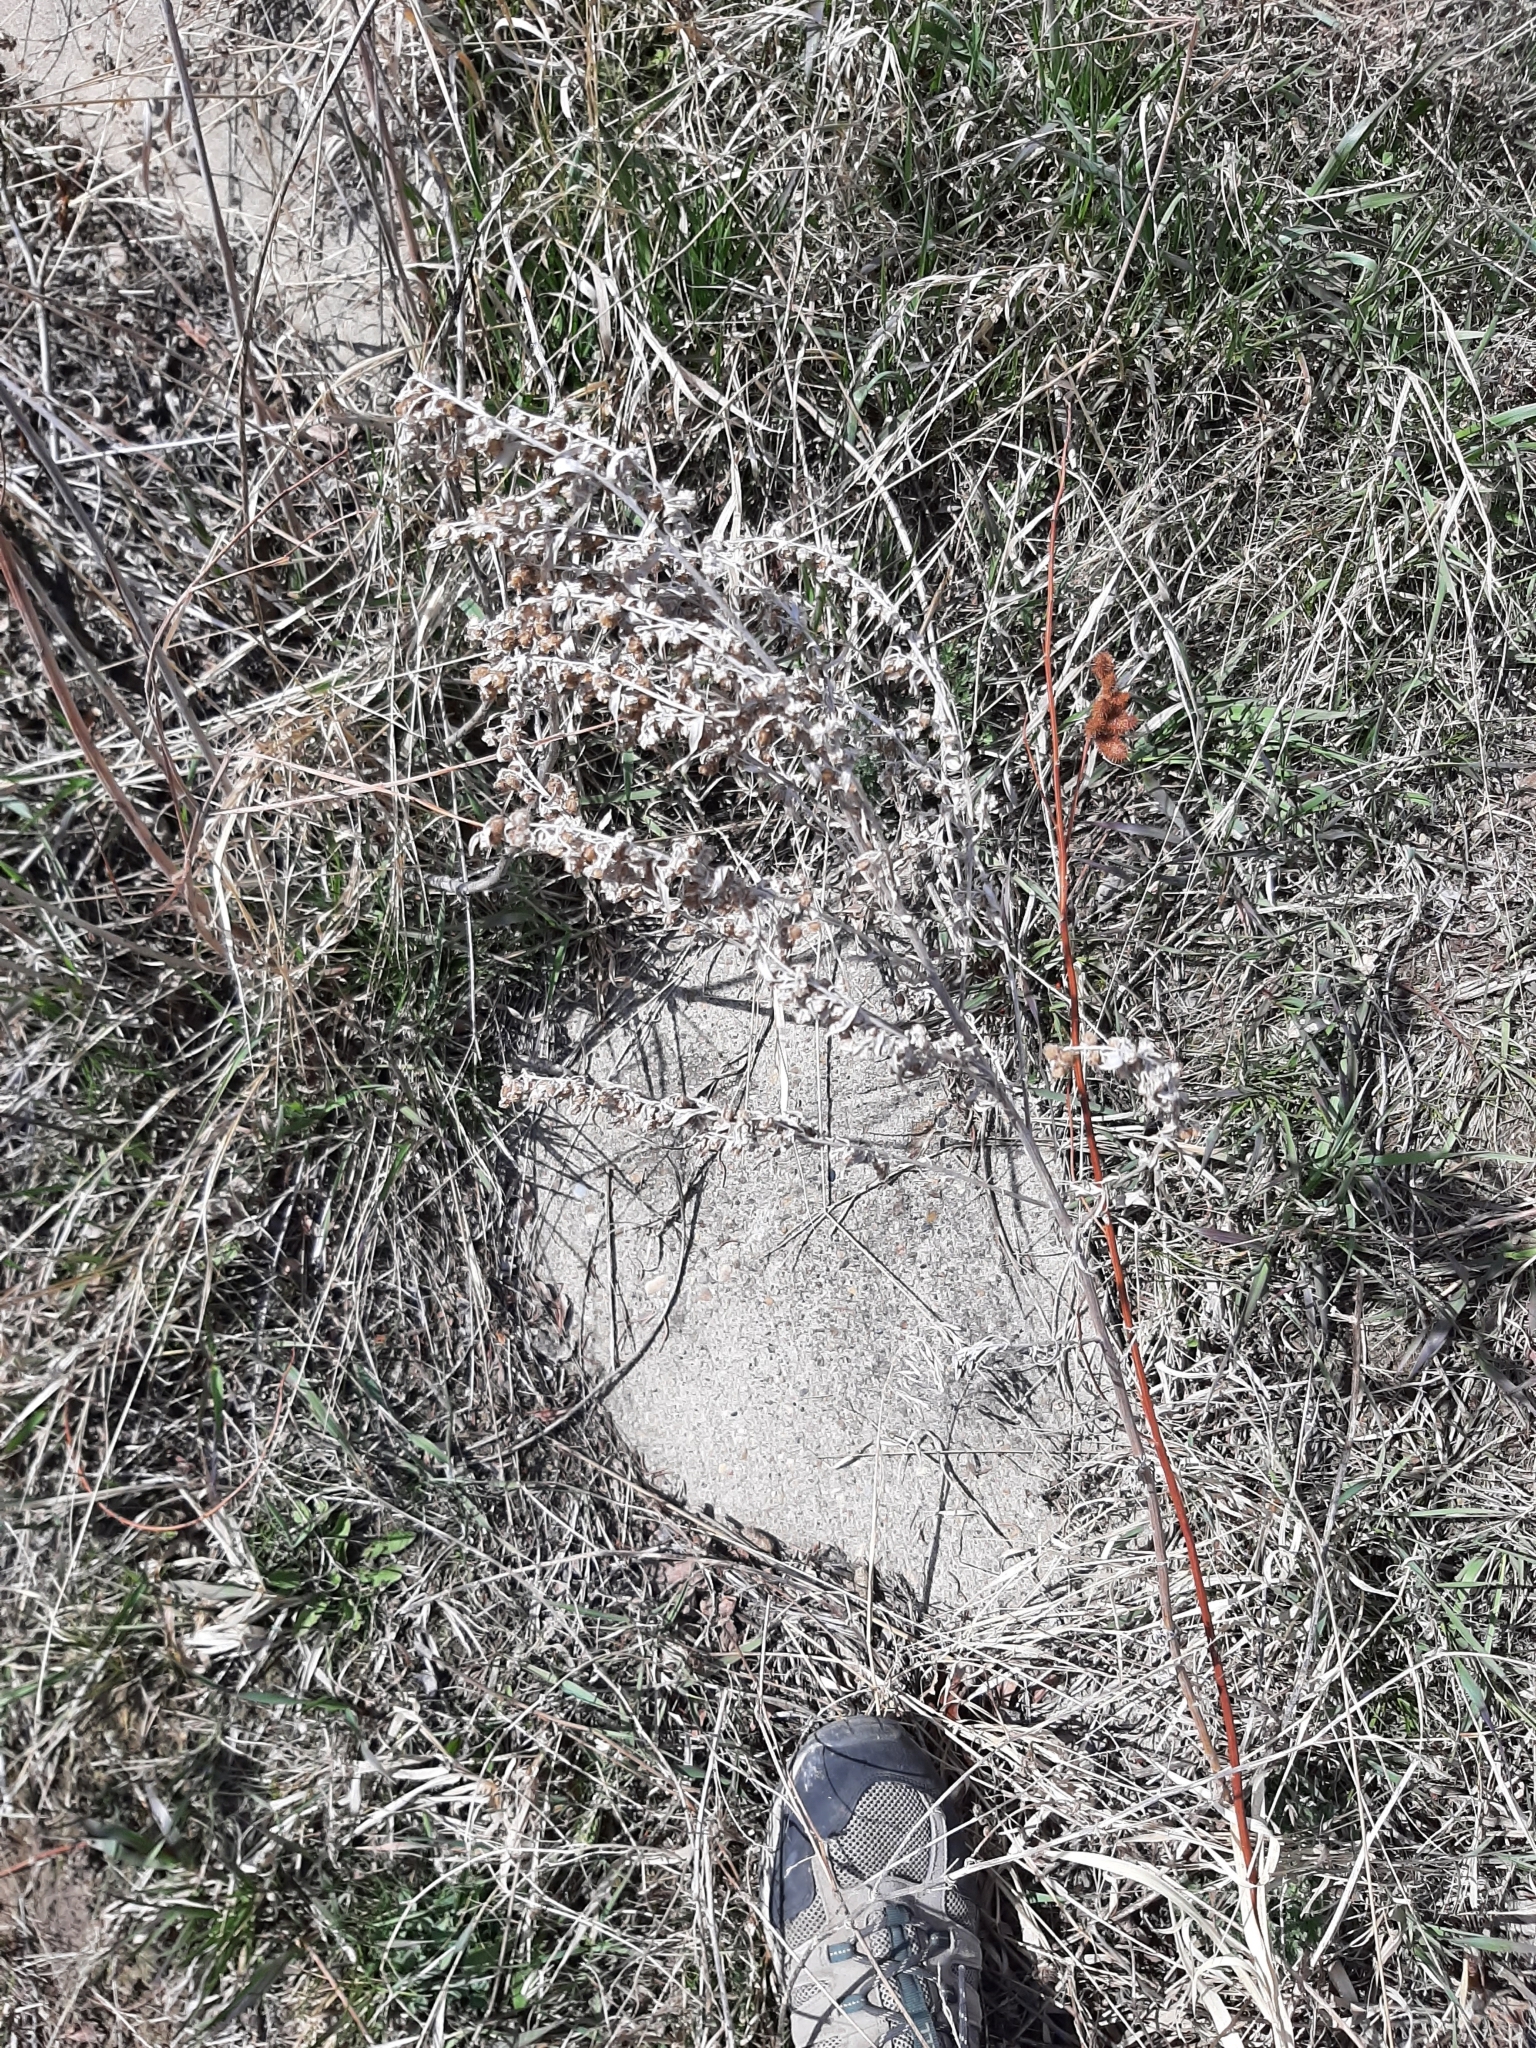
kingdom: Plantae
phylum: Tracheophyta
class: Magnoliopsida
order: Asterales
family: Asteraceae
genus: Artemisia
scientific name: Artemisia ludoviciana
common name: Western mugwort
